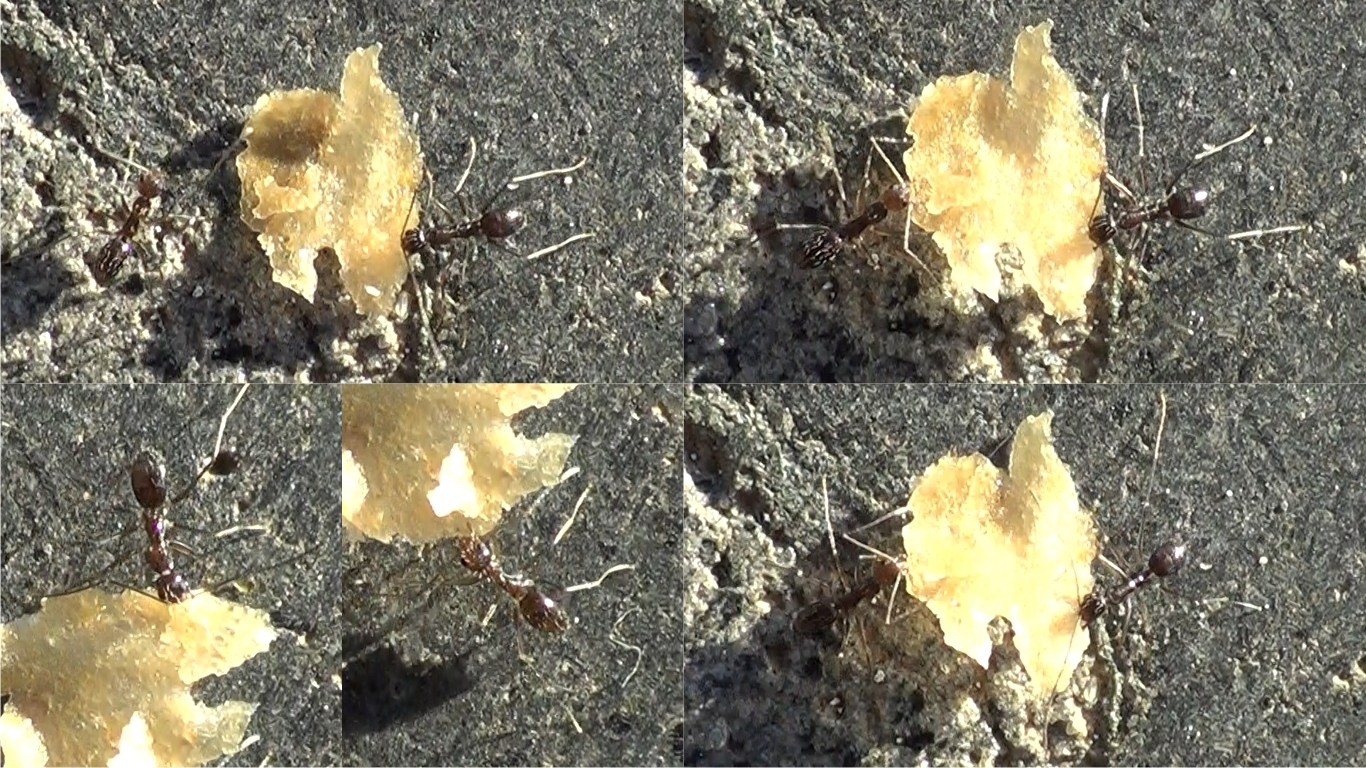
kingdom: Animalia
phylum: Arthropoda
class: Insecta
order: Hymenoptera
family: Formicidae
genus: Paratrechina
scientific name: Paratrechina longicornis
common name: Longhorned crazy ant
